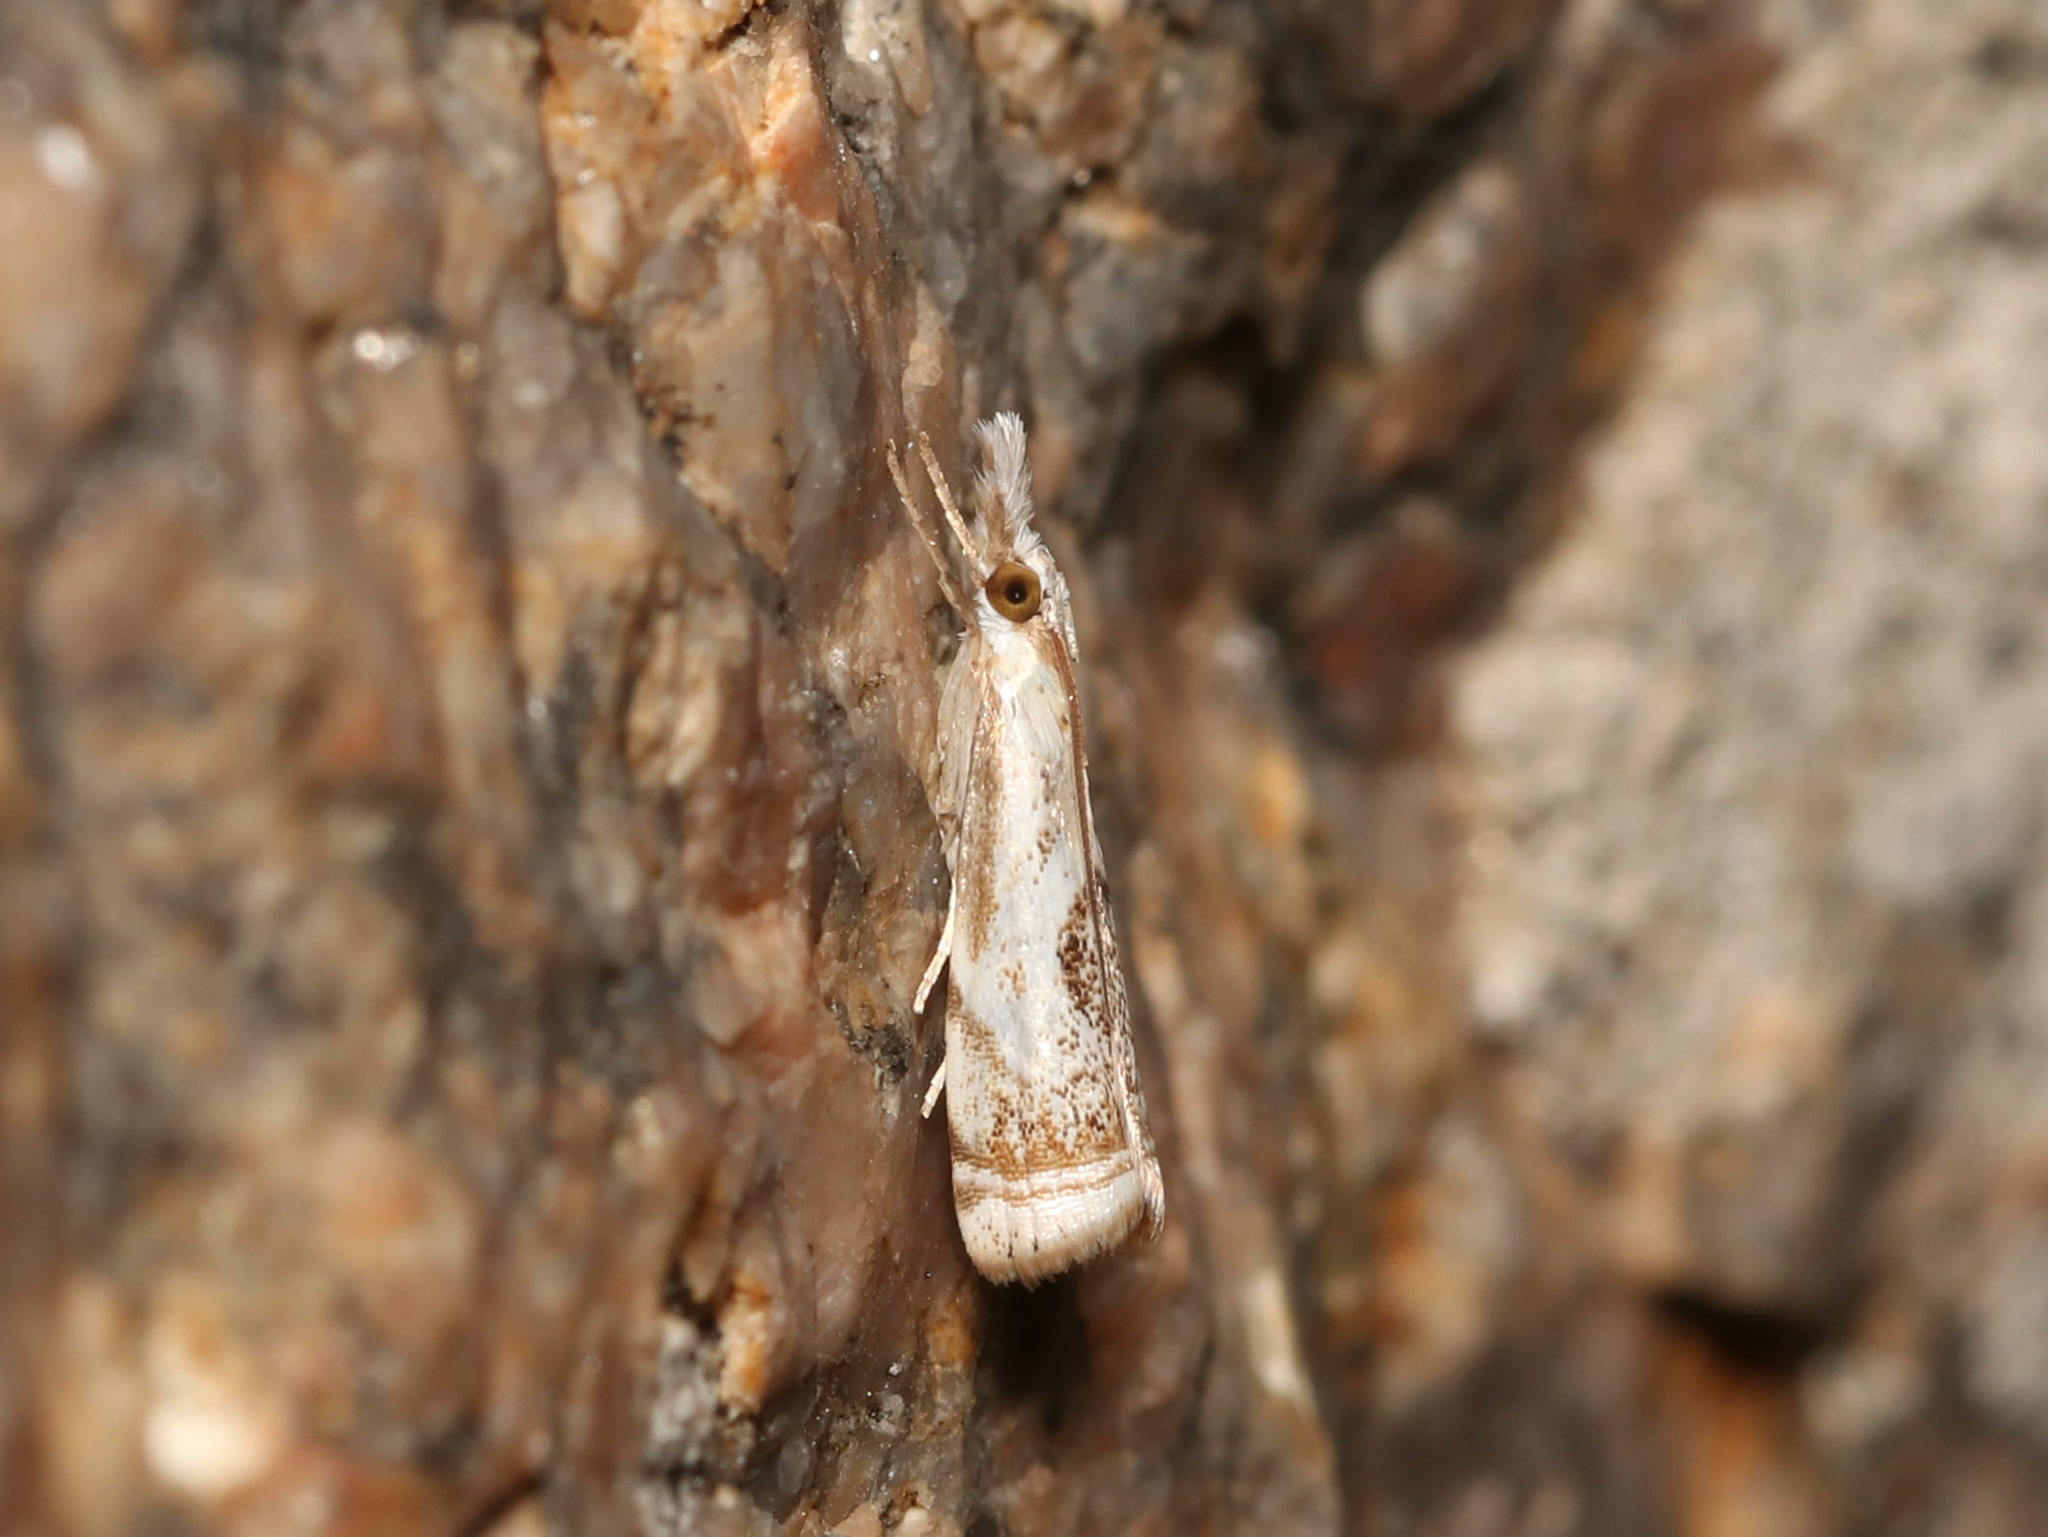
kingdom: Animalia
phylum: Arthropoda
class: Insecta
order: Lepidoptera
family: Crambidae
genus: Microcrambus
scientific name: Microcrambus elegans
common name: Elegant grass-veneer
